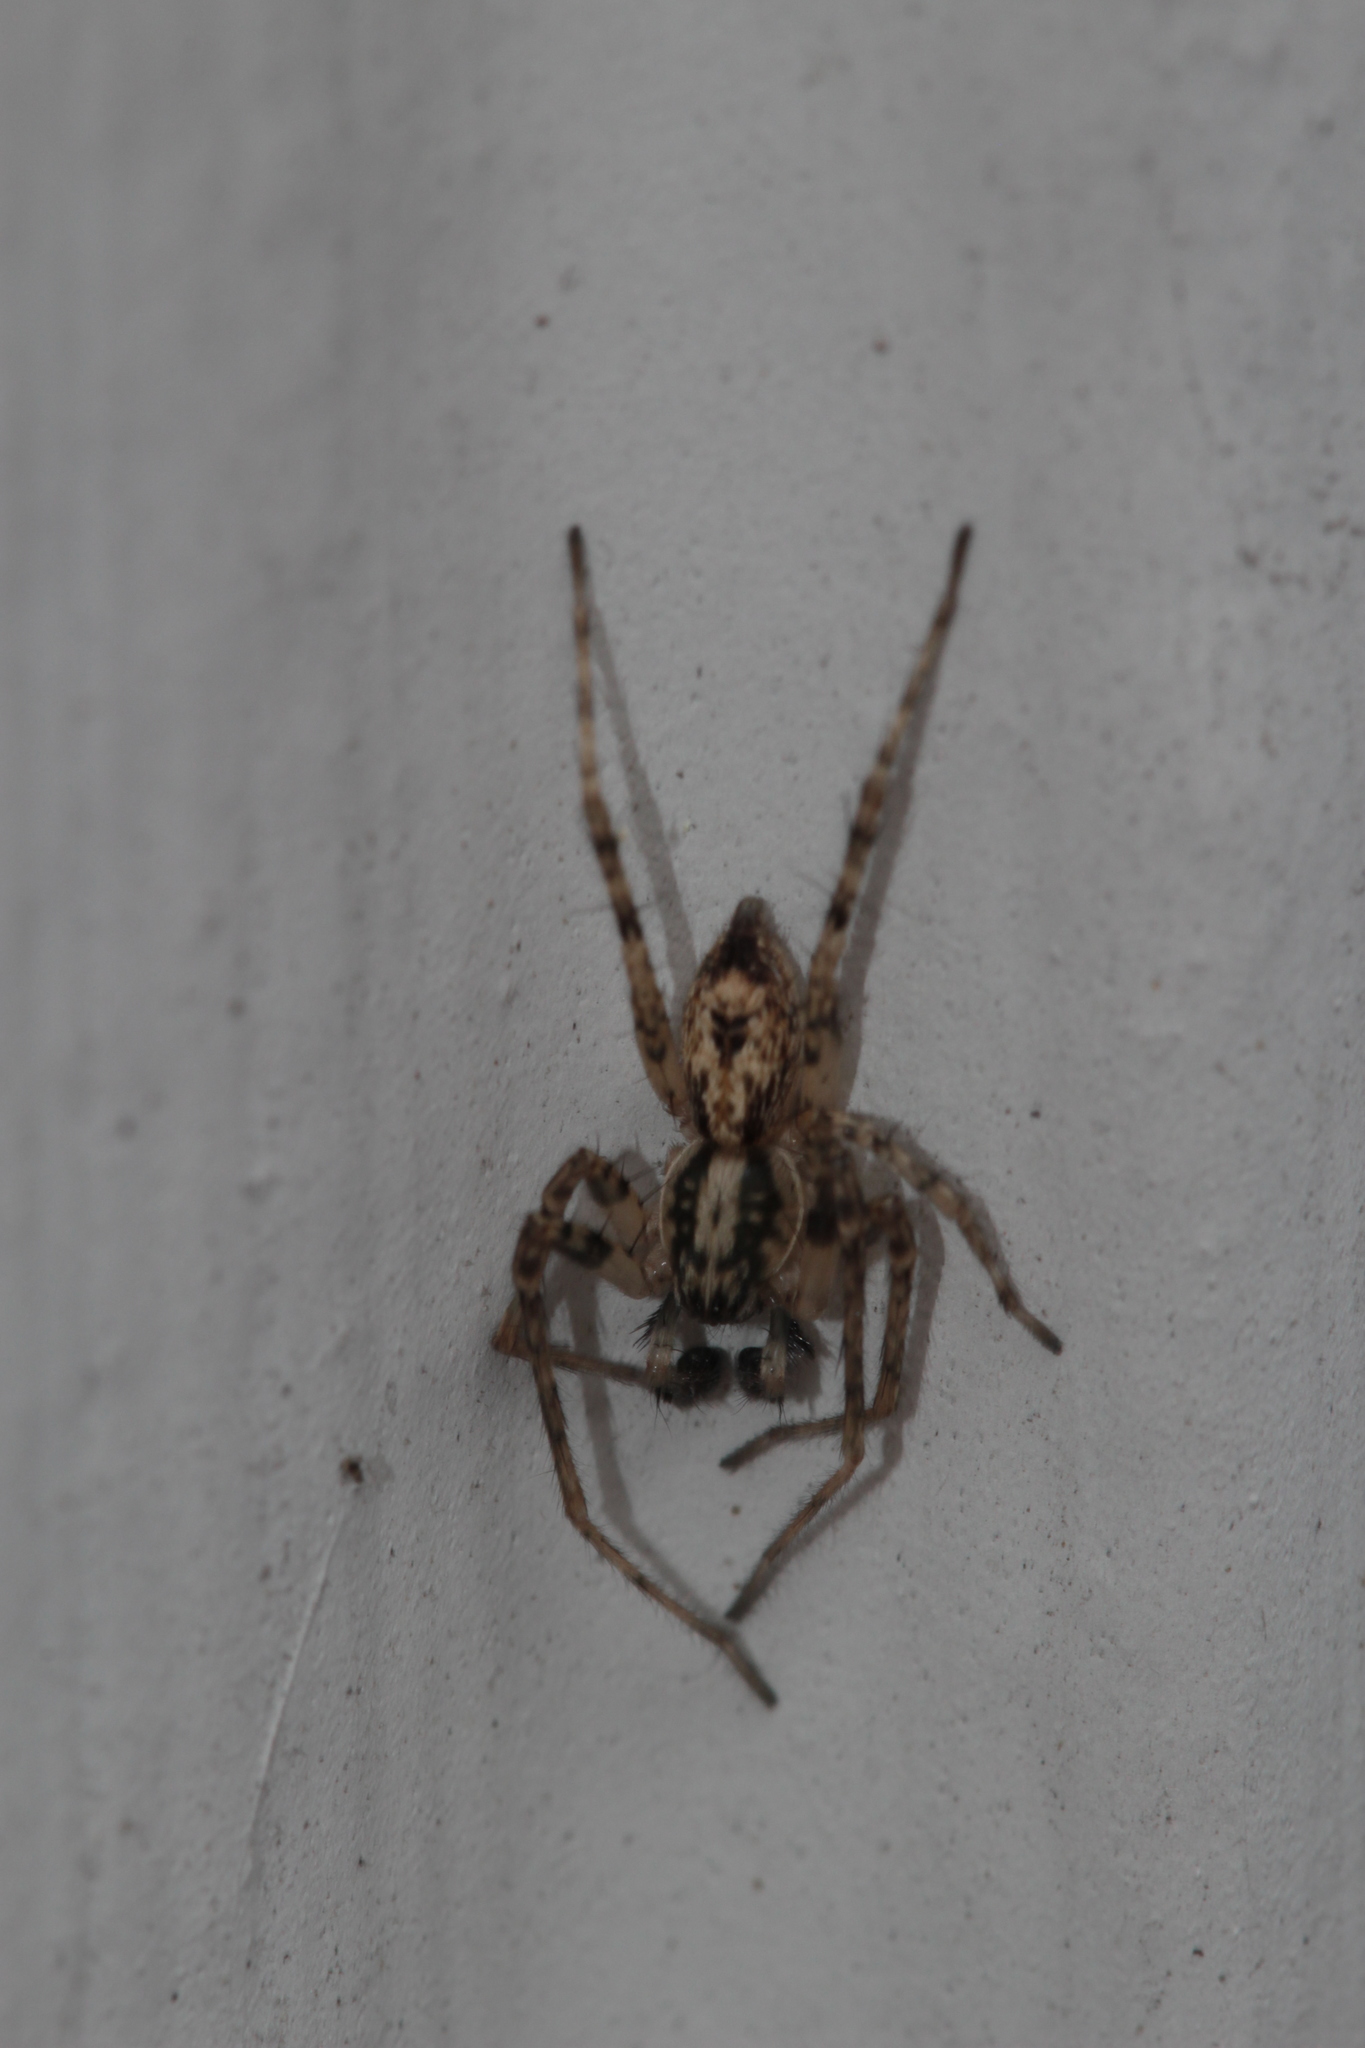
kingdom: Animalia
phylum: Arthropoda
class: Arachnida
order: Araneae
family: Anyphaenidae
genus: Anyphaena
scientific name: Anyphaena accentuata
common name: Buzzing spider
